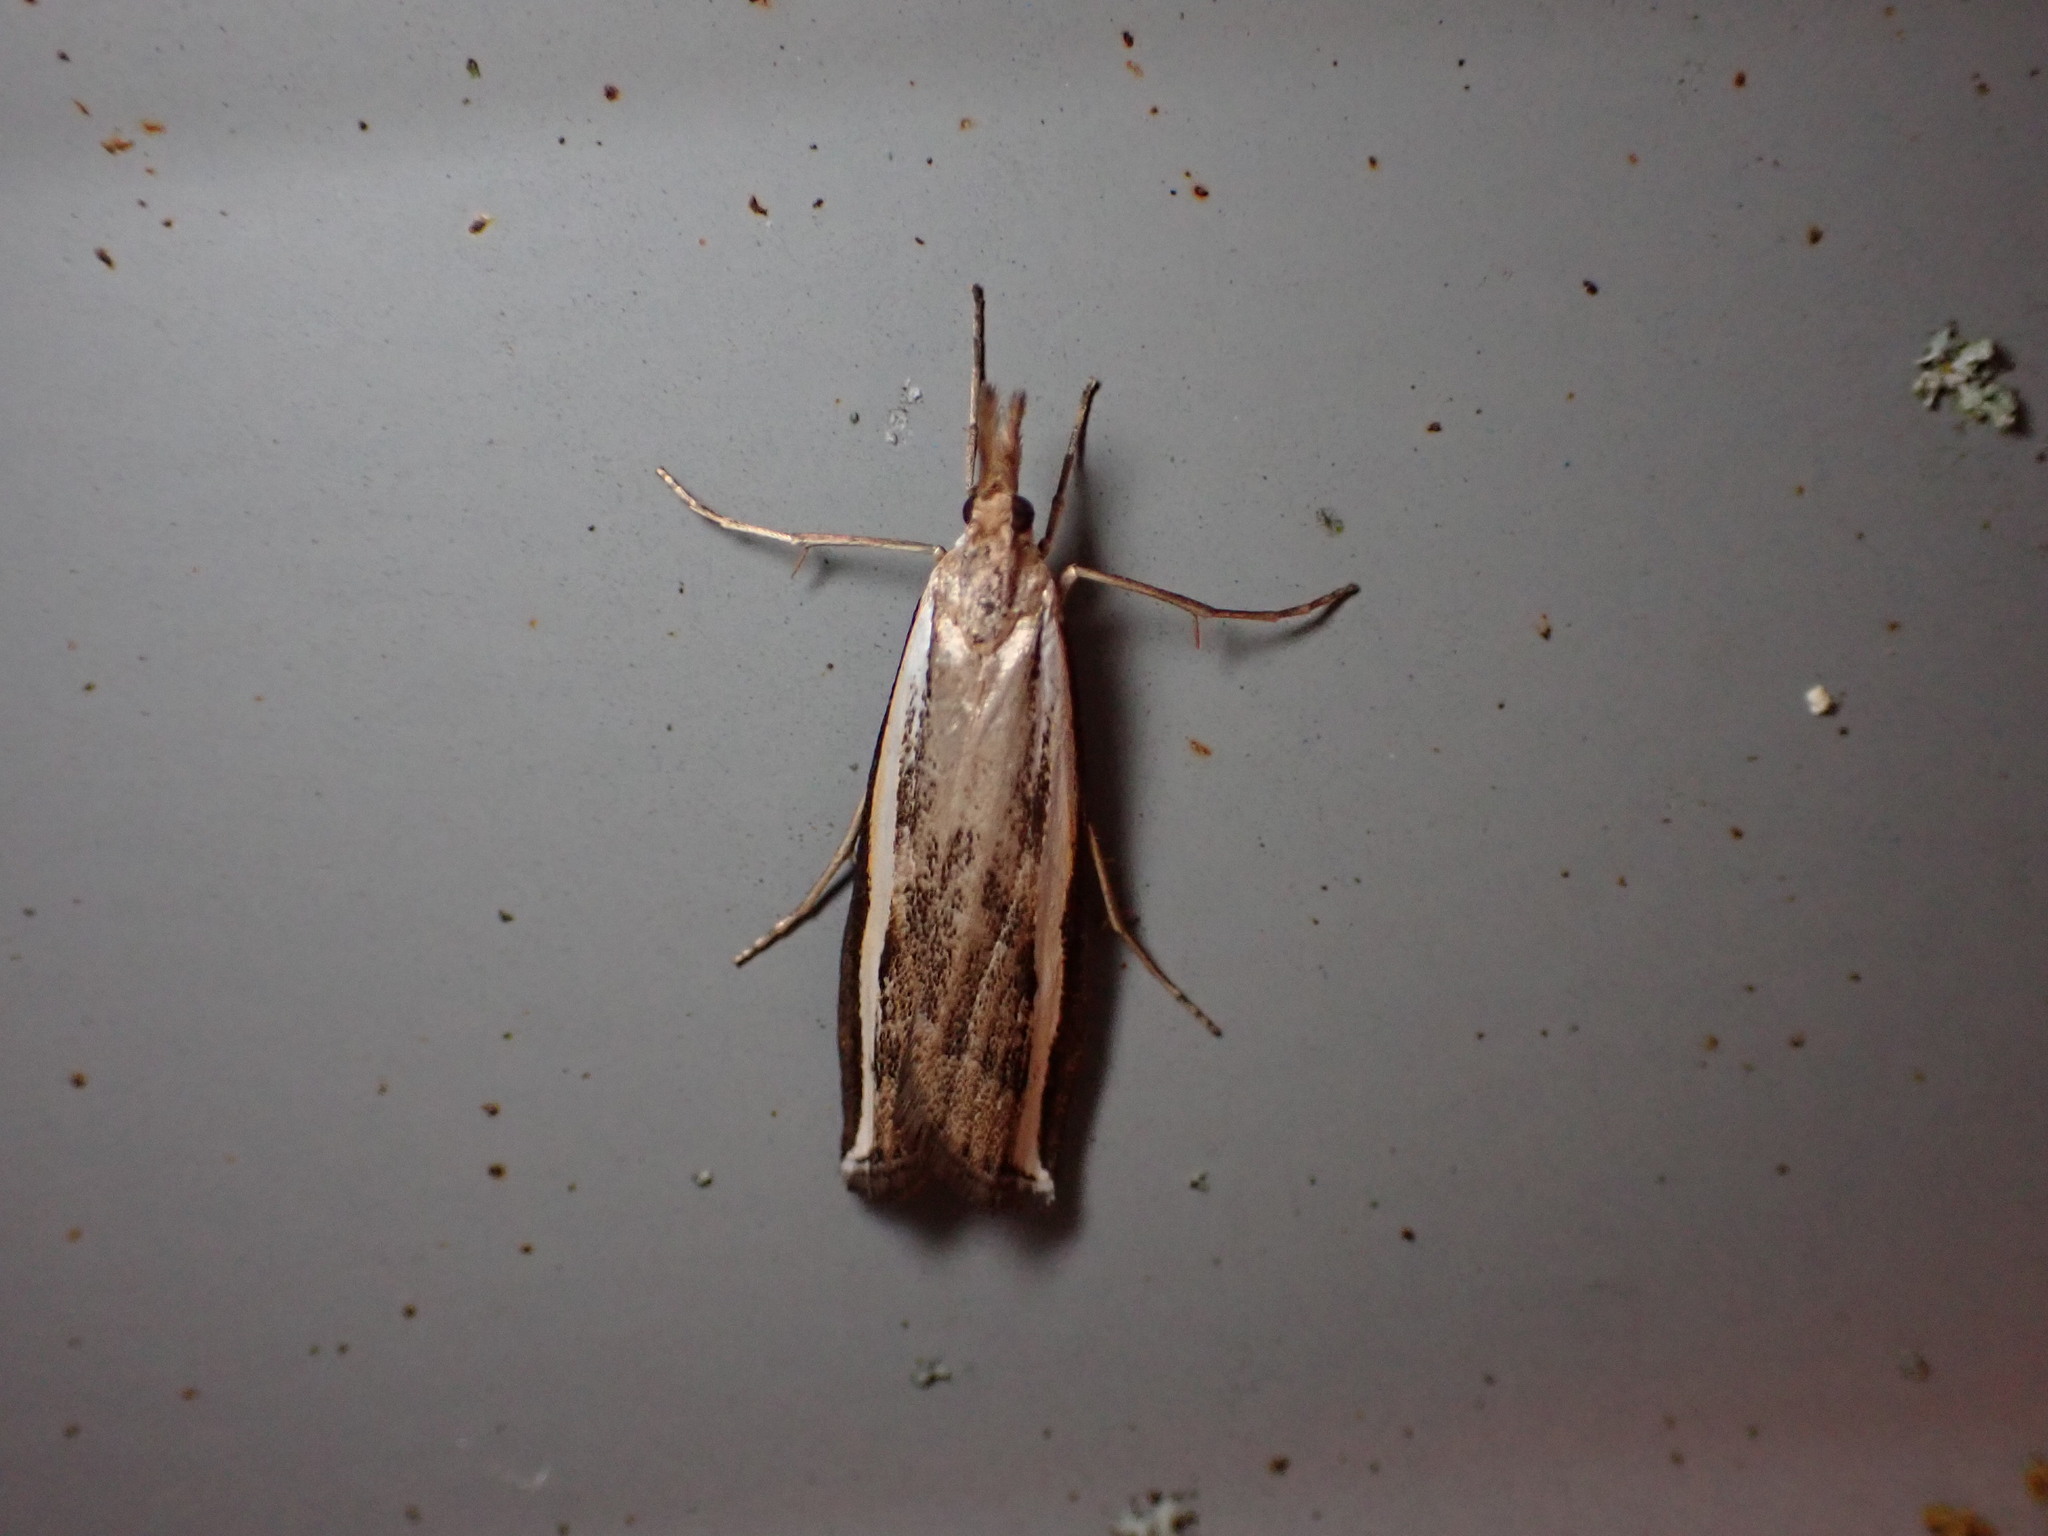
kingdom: Animalia
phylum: Arthropoda
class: Insecta
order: Lepidoptera
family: Crambidae
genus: Orocrambus
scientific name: Orocrambus flexuosellus
